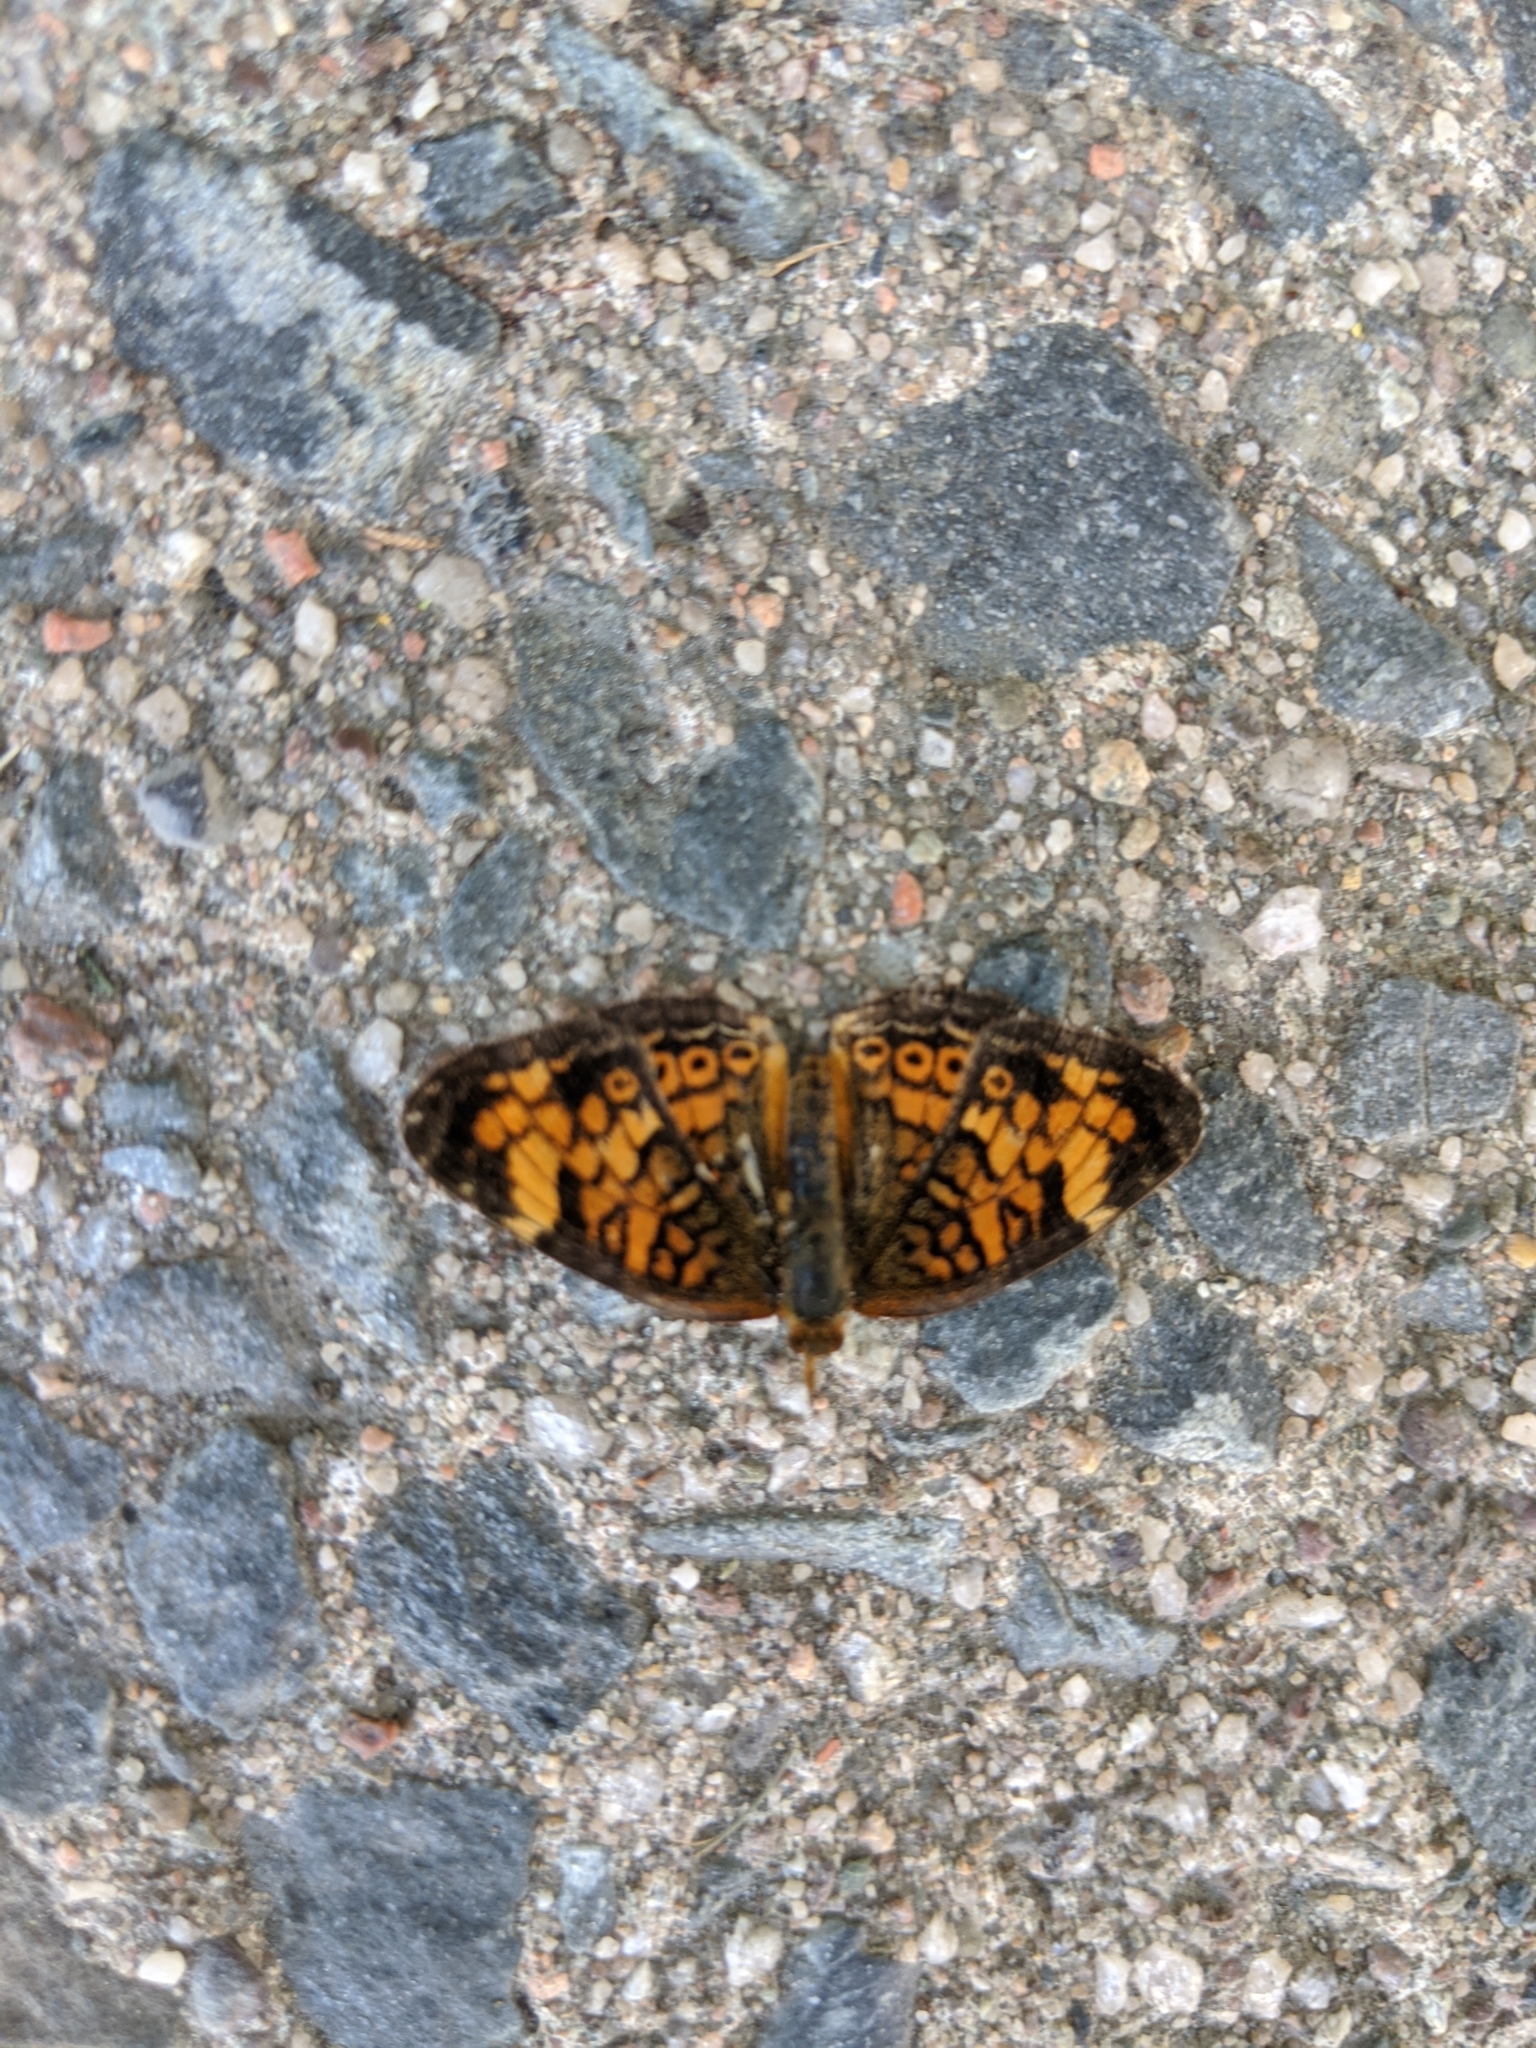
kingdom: Animalia
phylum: Arthropoda
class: Insecta
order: Lepidoptera
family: Nymphalidae
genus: Phyciodes
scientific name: Phyciodes tharos
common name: Pearl crescent
